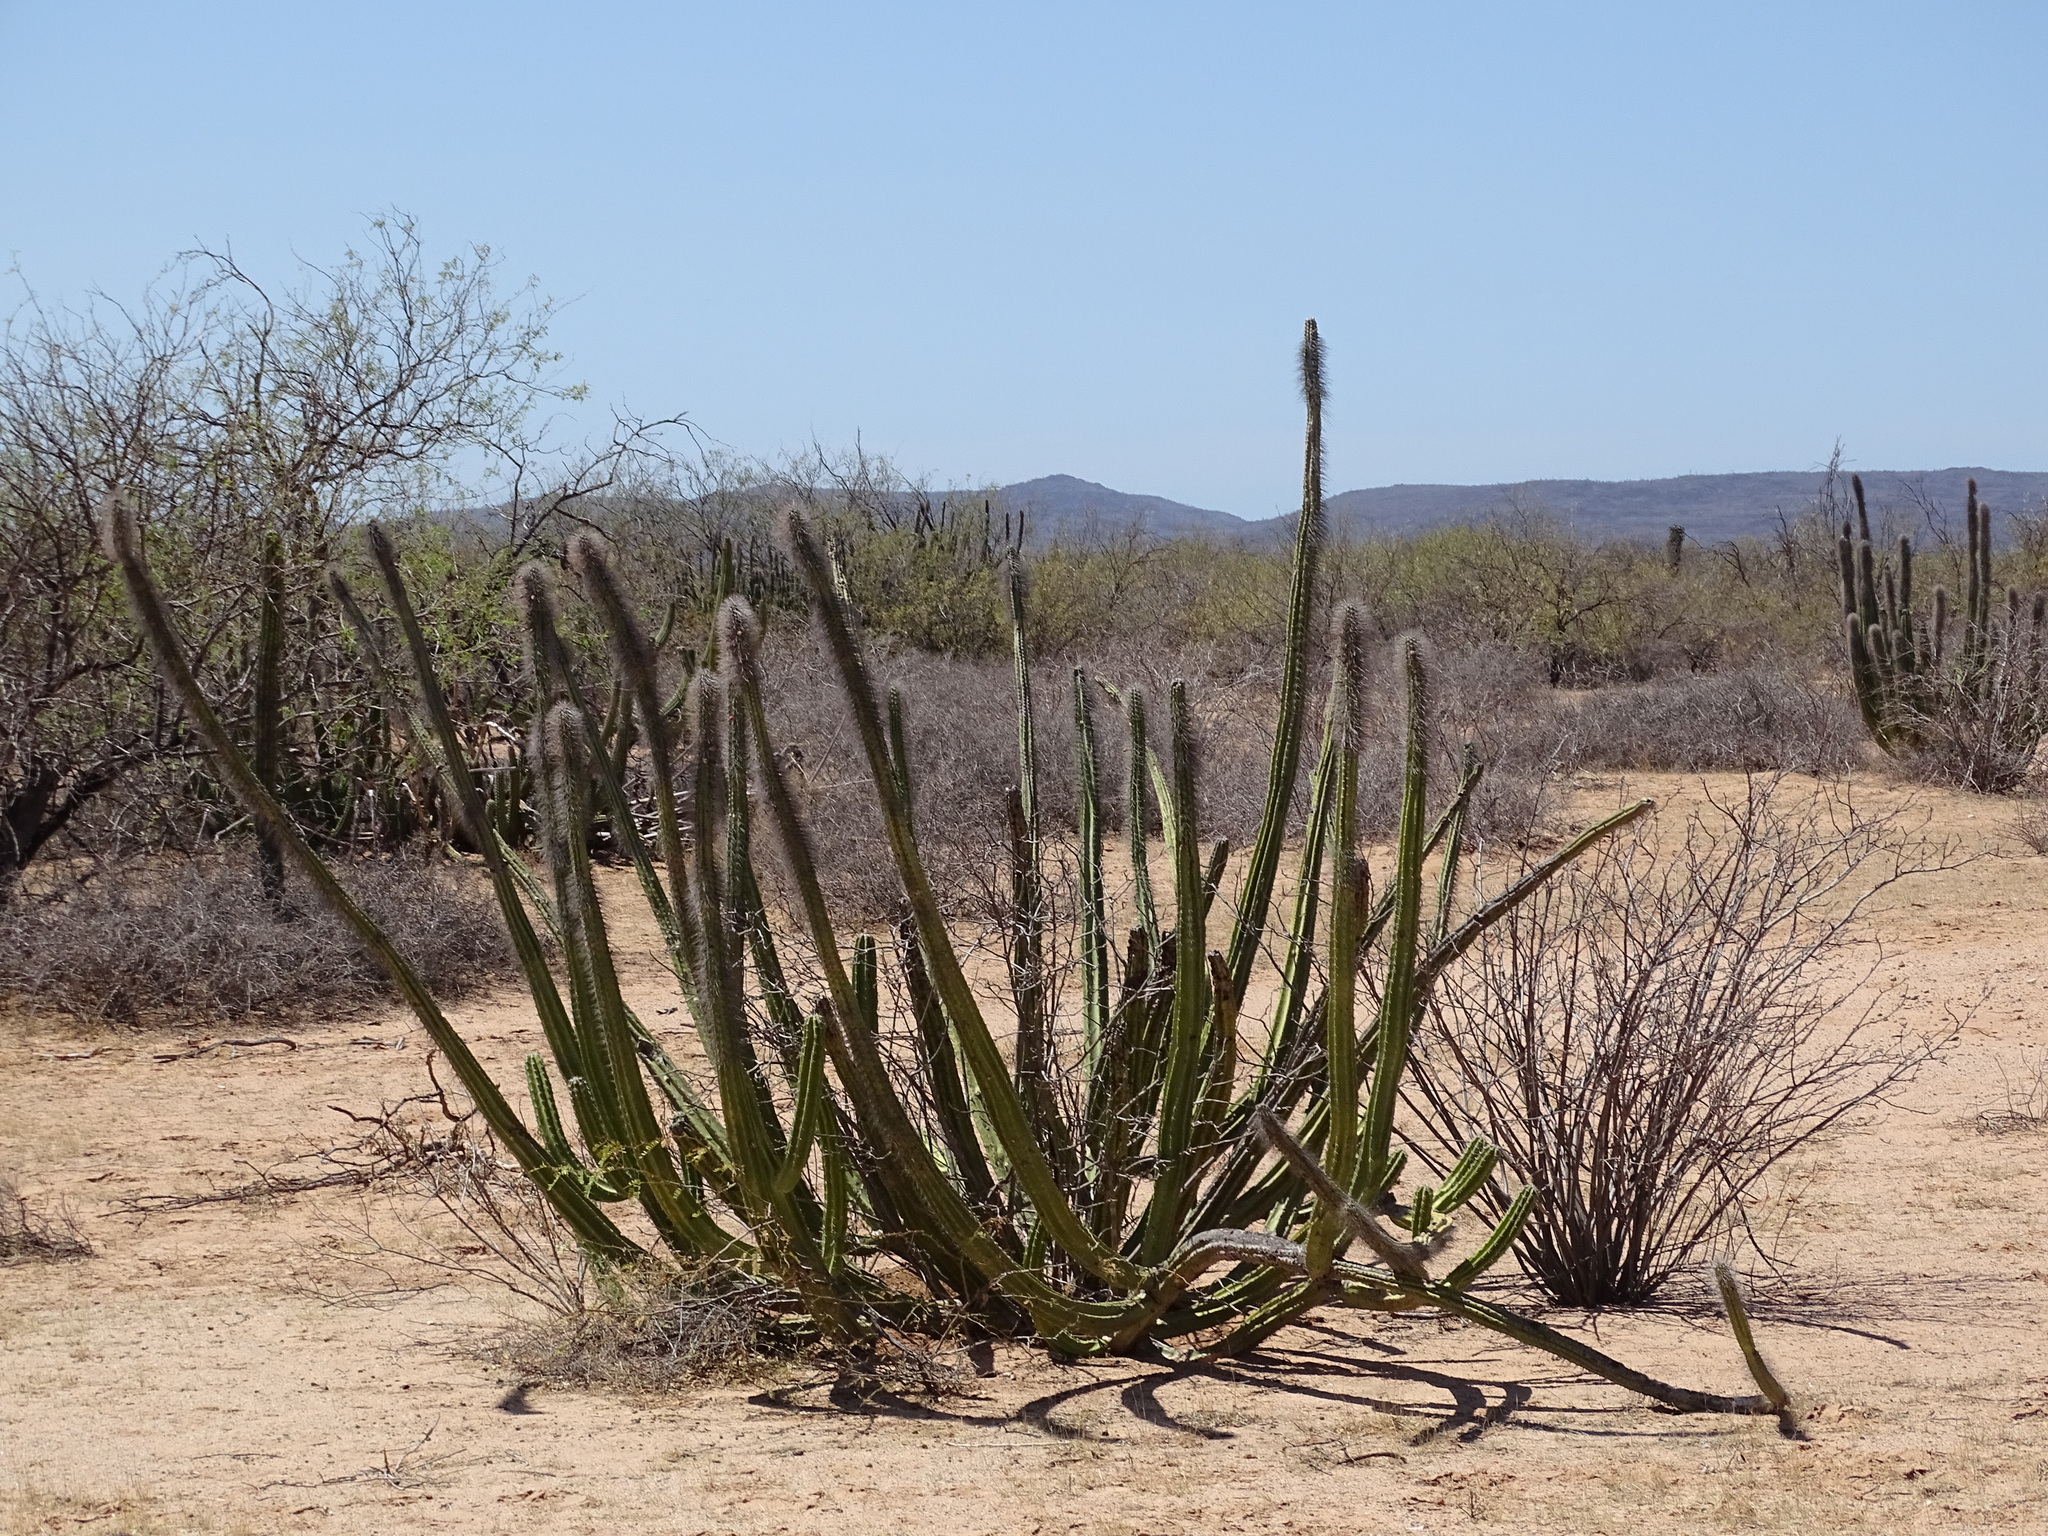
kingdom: Plantae
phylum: Tracheophyta
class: Magnoliopsida
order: Caryophyllales
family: Cactaceae
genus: Pachycereus
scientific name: Pachycereus schottii
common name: Senita cactus
